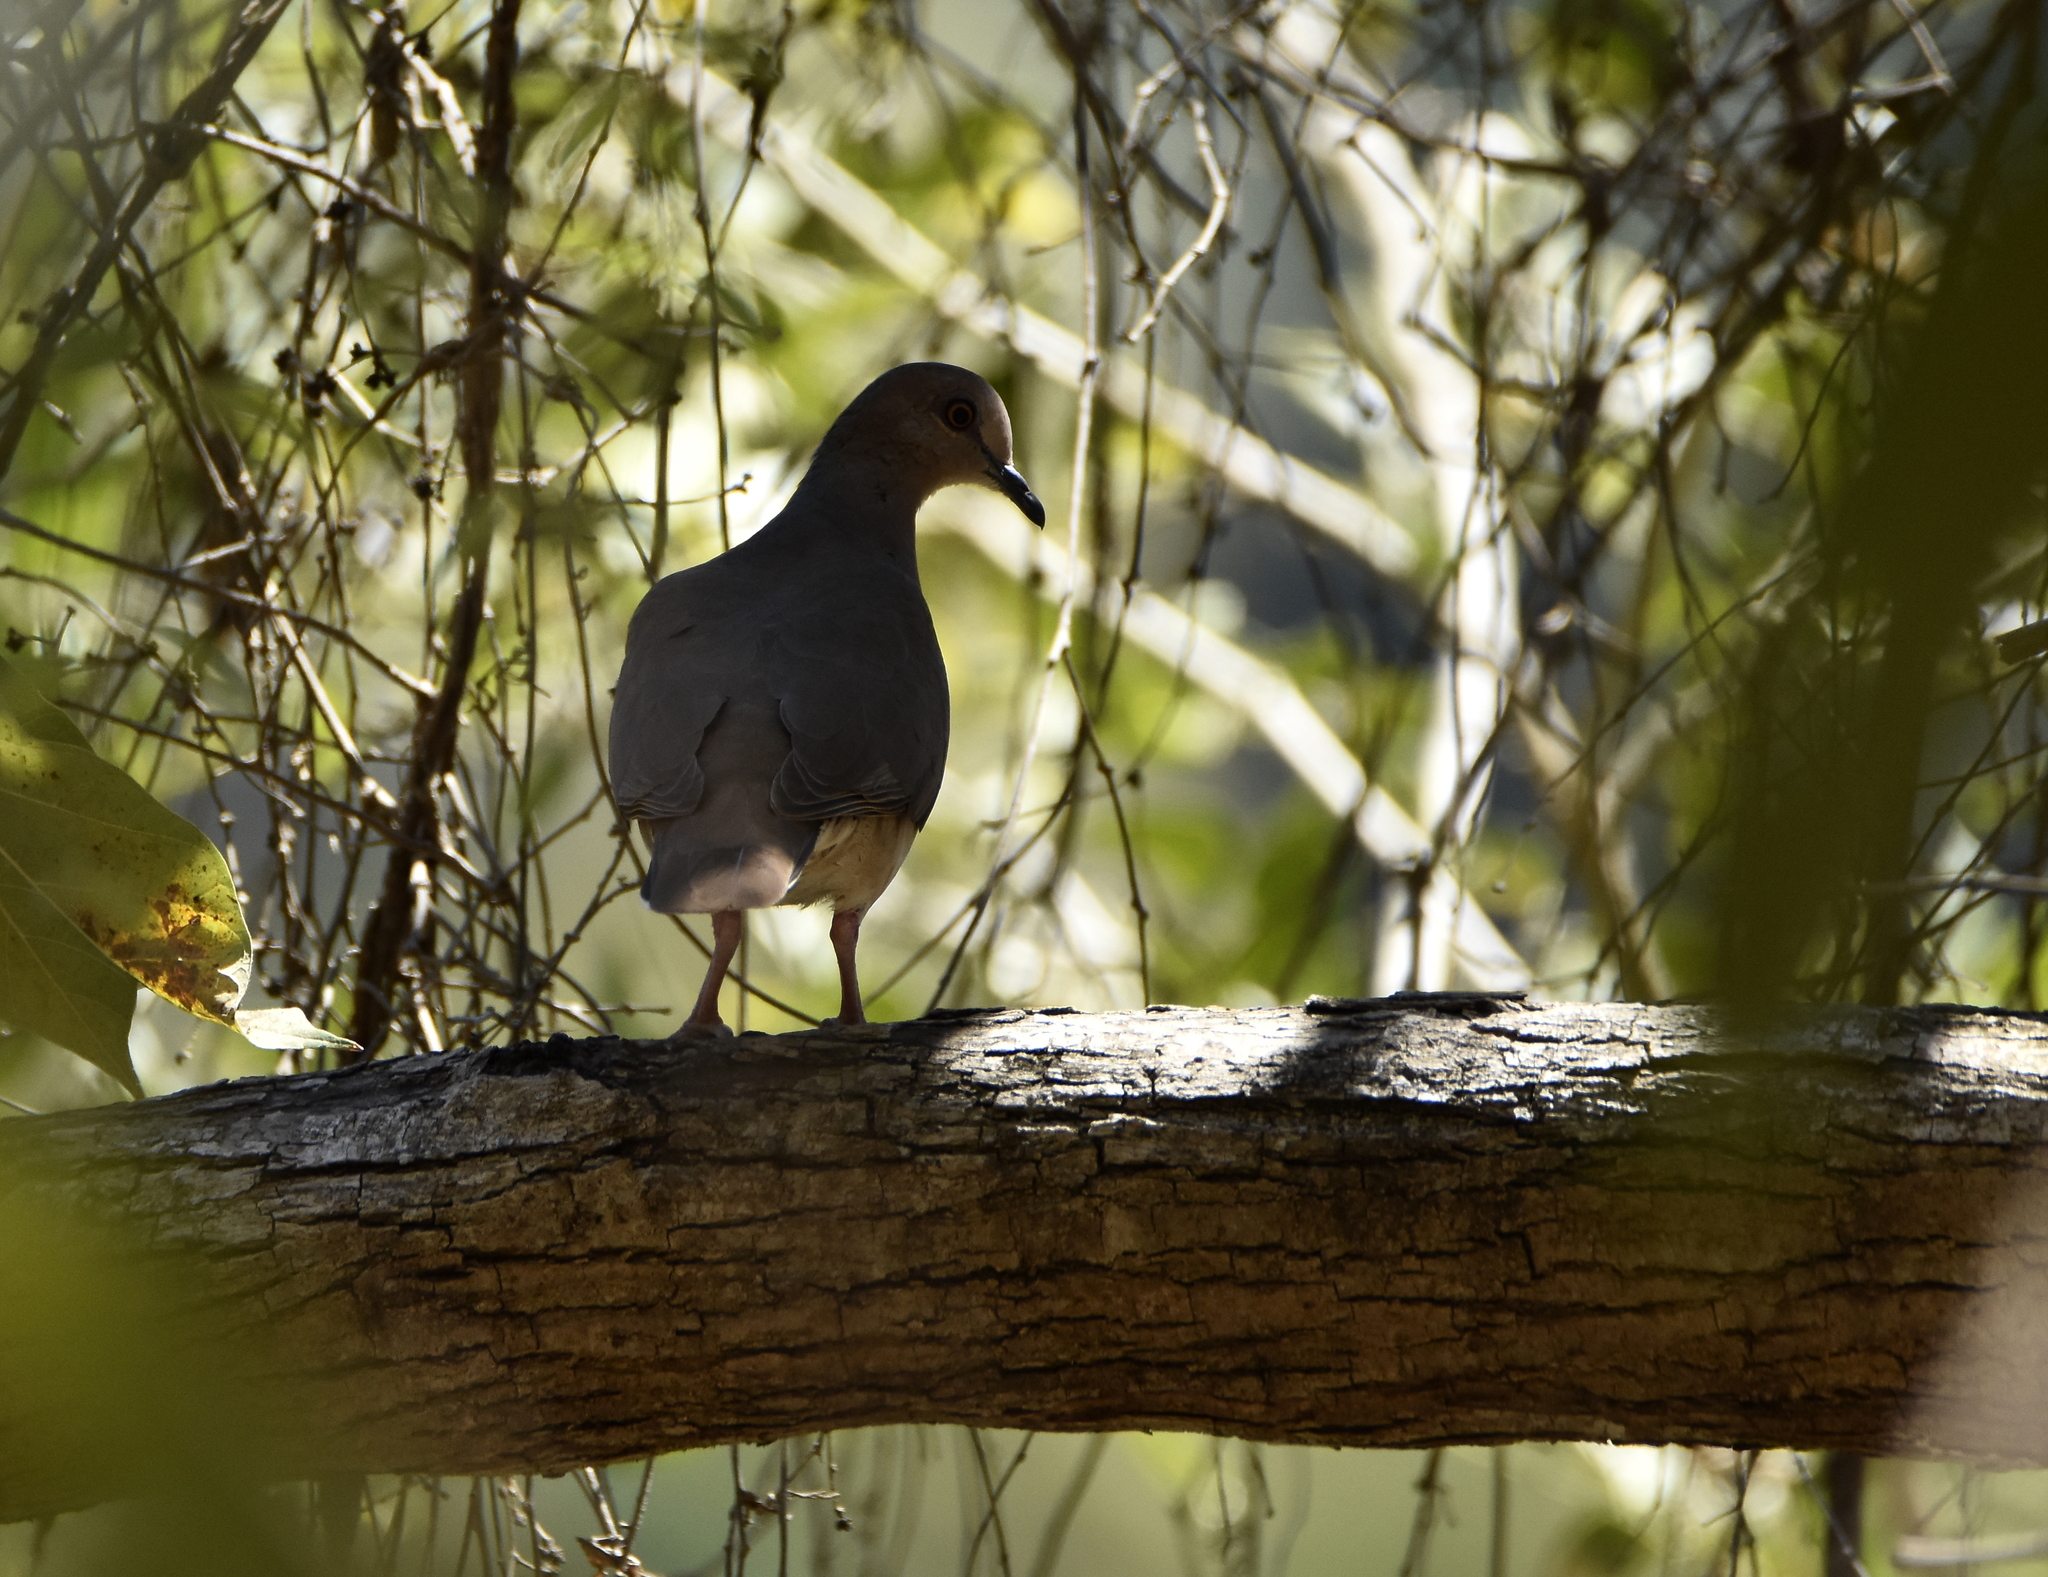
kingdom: Animalia
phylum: Chordata
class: Aves
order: Columbiformes
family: Columbidae
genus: Leptotila
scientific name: Leptotila verreauxi
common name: White-tipped dove
